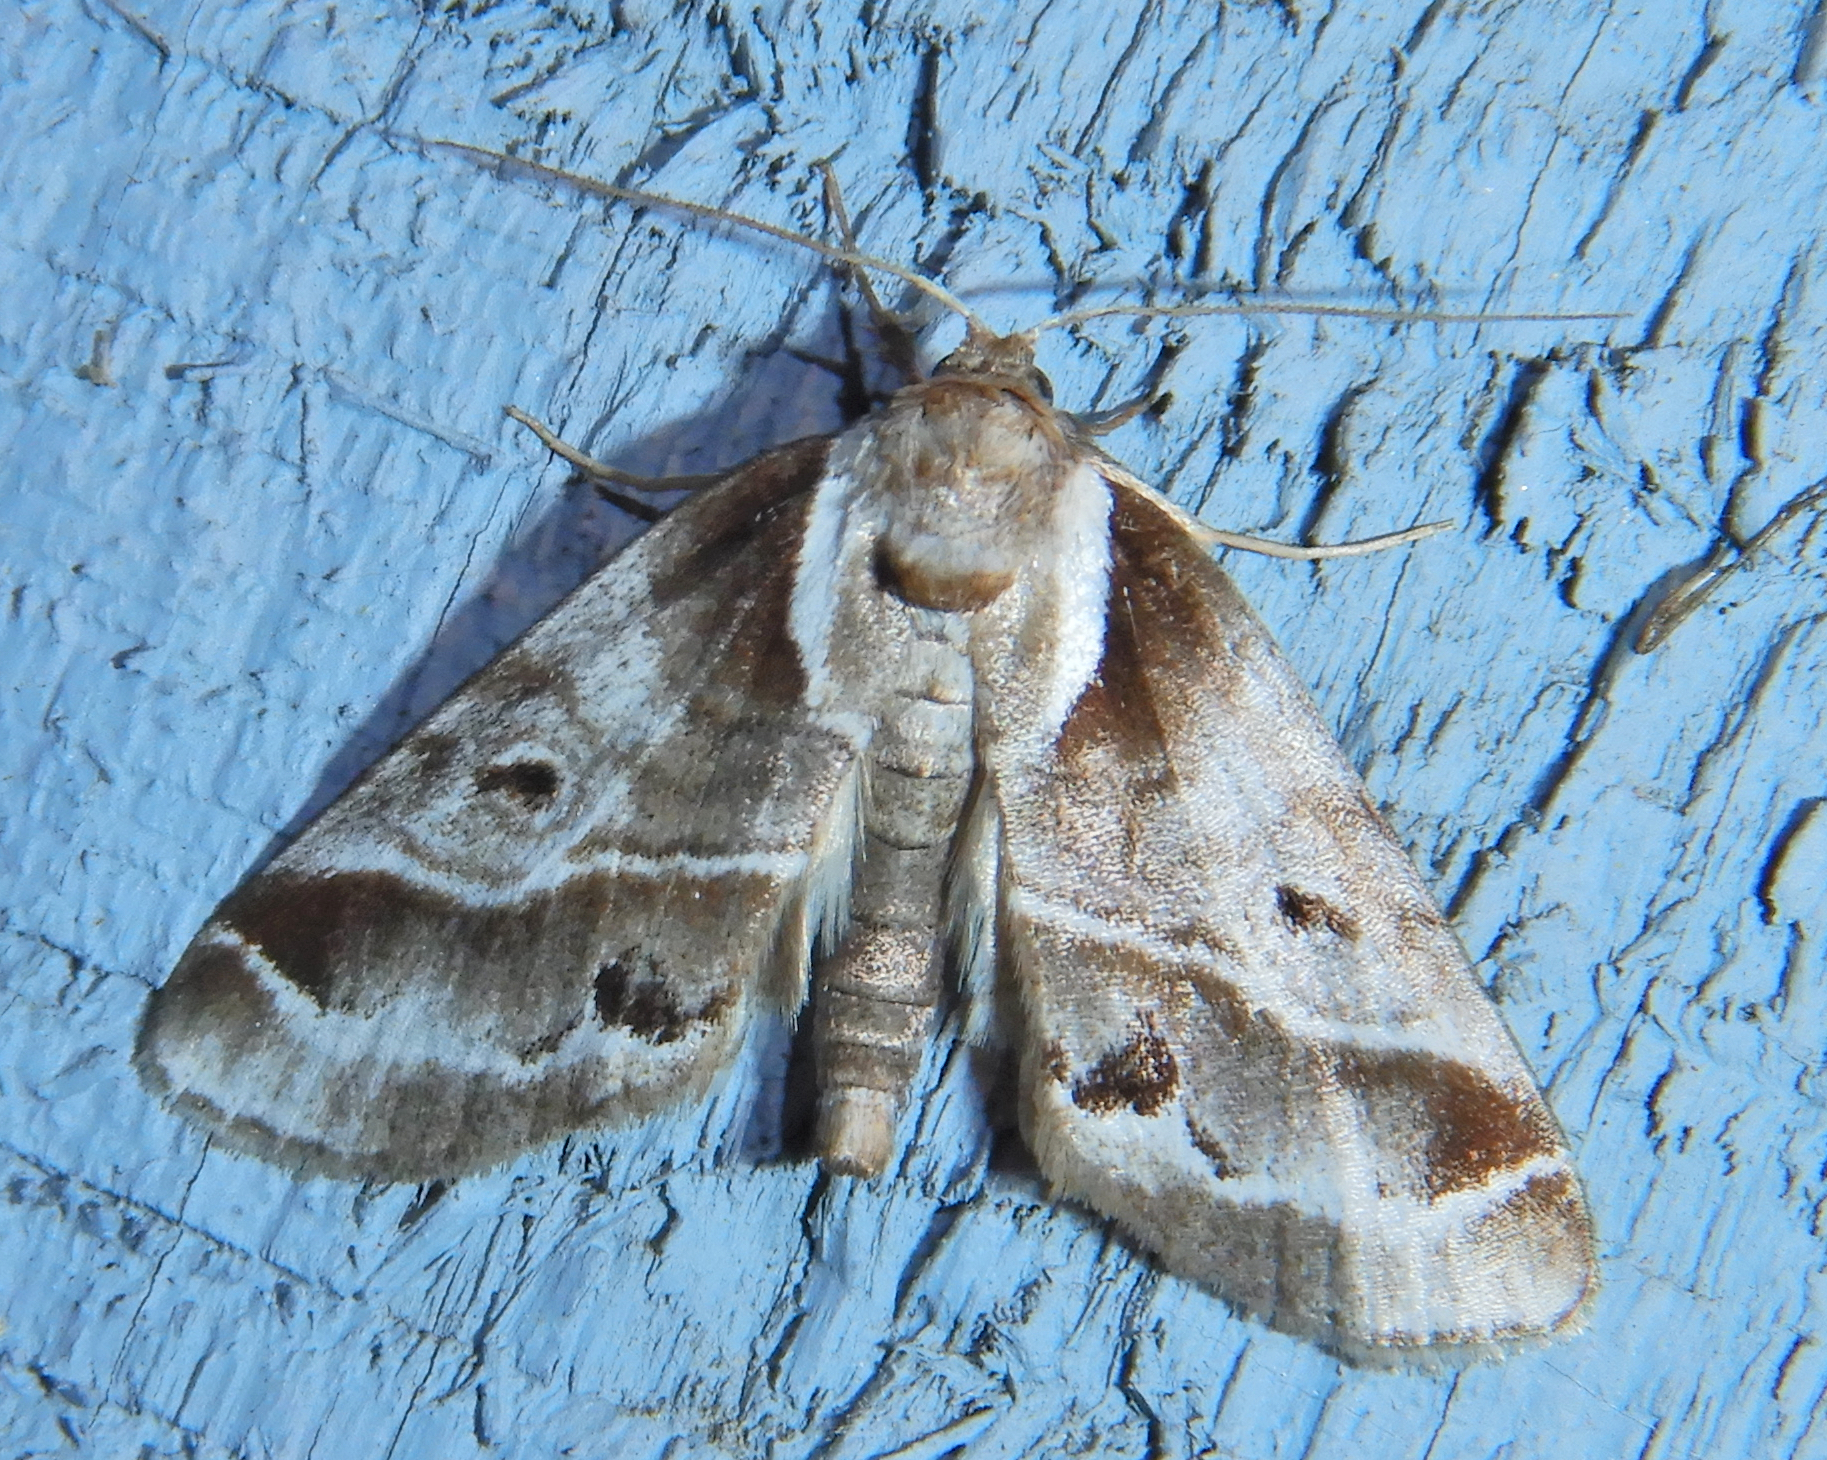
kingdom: Animalia
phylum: Arthropoda
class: Insecta
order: Lepidoptera
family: Nolidae
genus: Baileya
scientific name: Baileya doubledayi
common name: Doubleday's baileya moth
